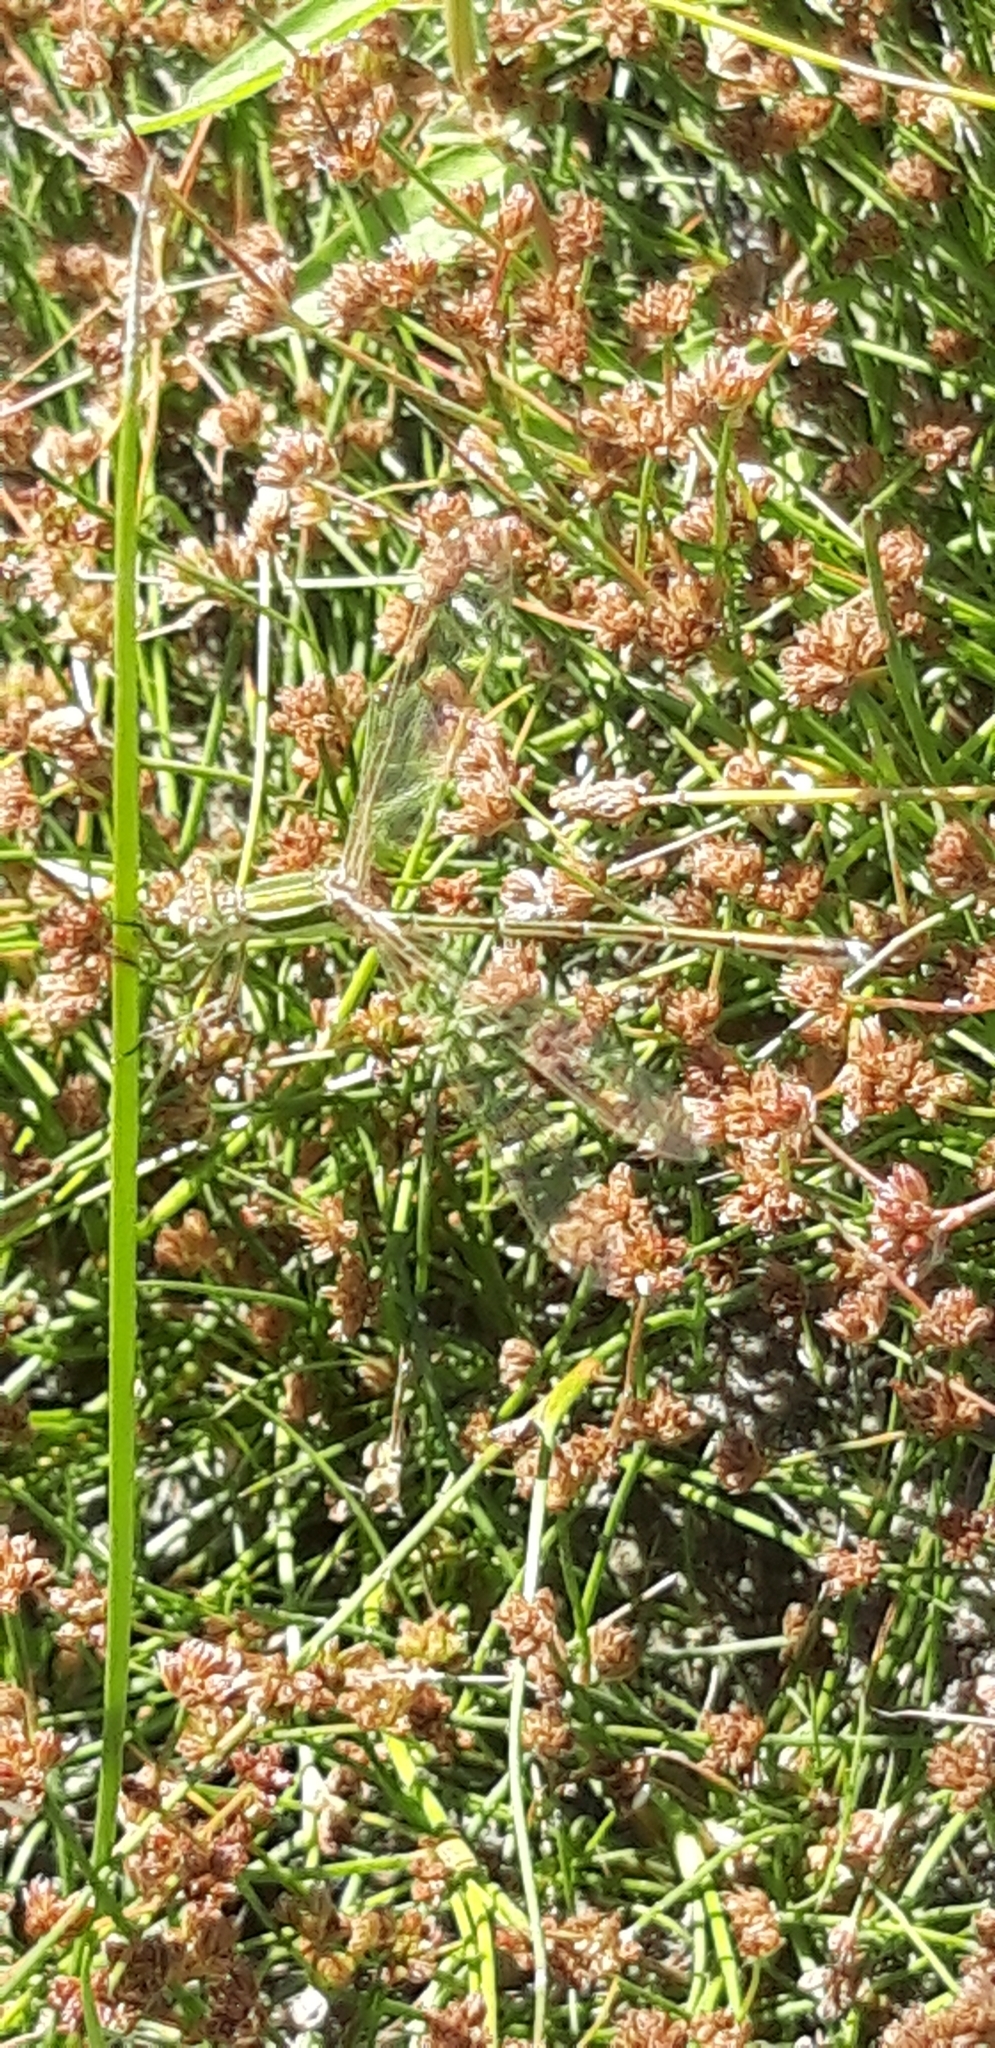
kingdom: Animalia
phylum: Arthropoda
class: Insecta
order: Odonata
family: Lestidae
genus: Lestes
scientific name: Lestes barbarus
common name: Migrant spreadwing
